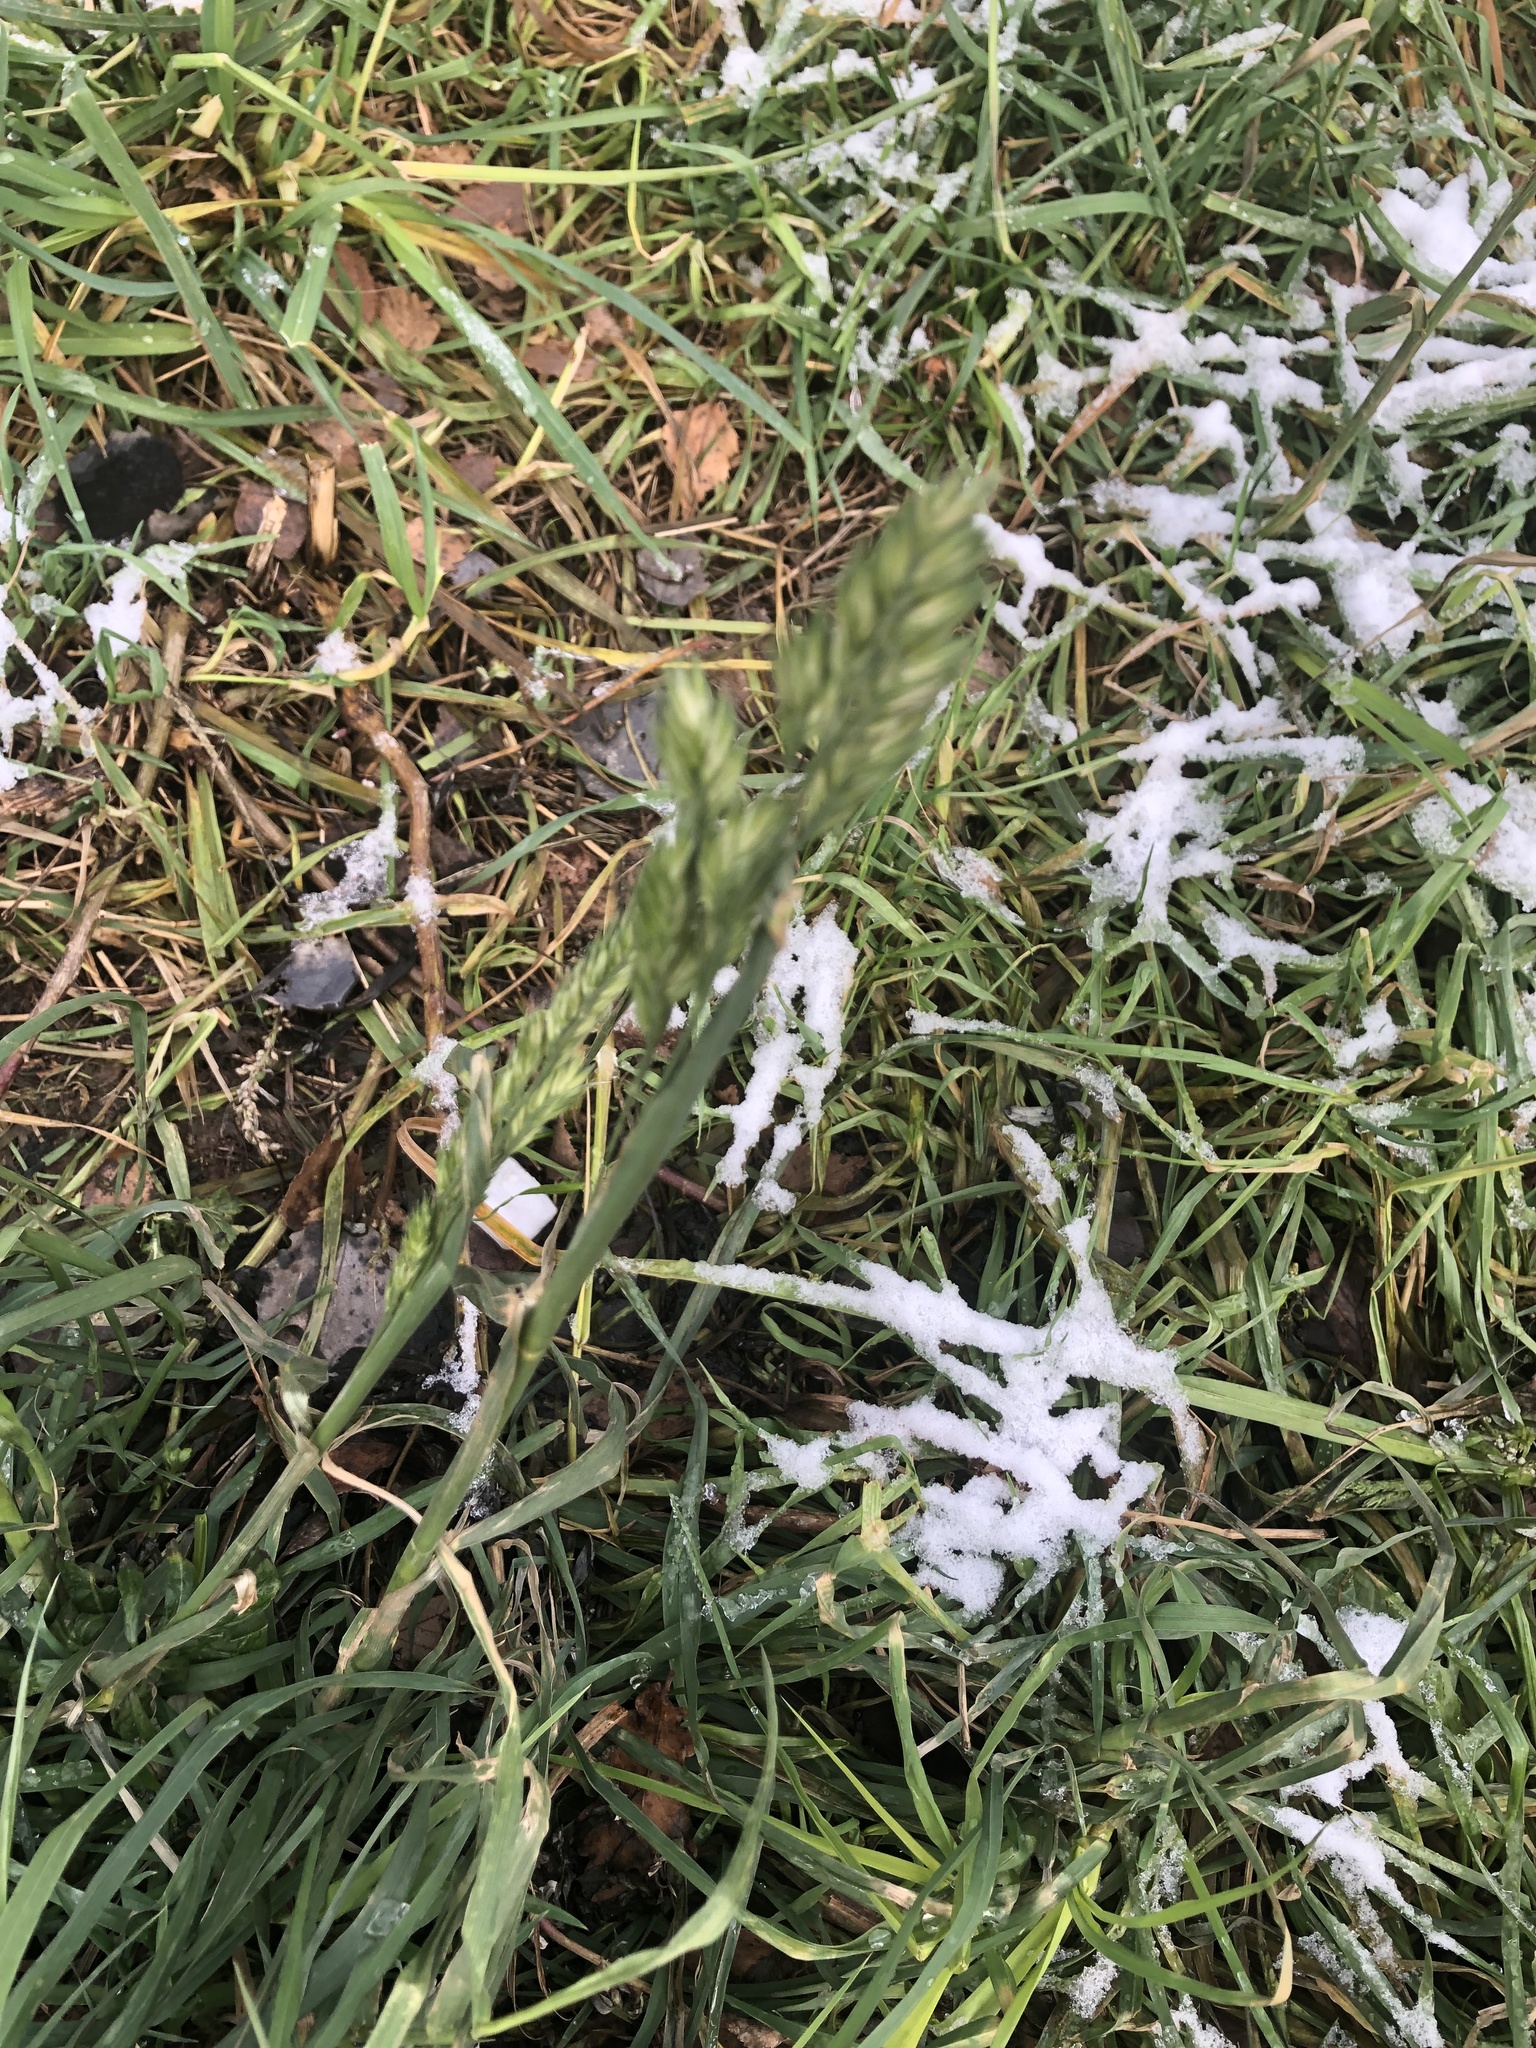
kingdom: Plantae
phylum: Tracheophyta
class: Liliopsida
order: Poales
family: Poaceae
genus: Dactylis
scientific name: Dactylis glomerata
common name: Orchardgrass
